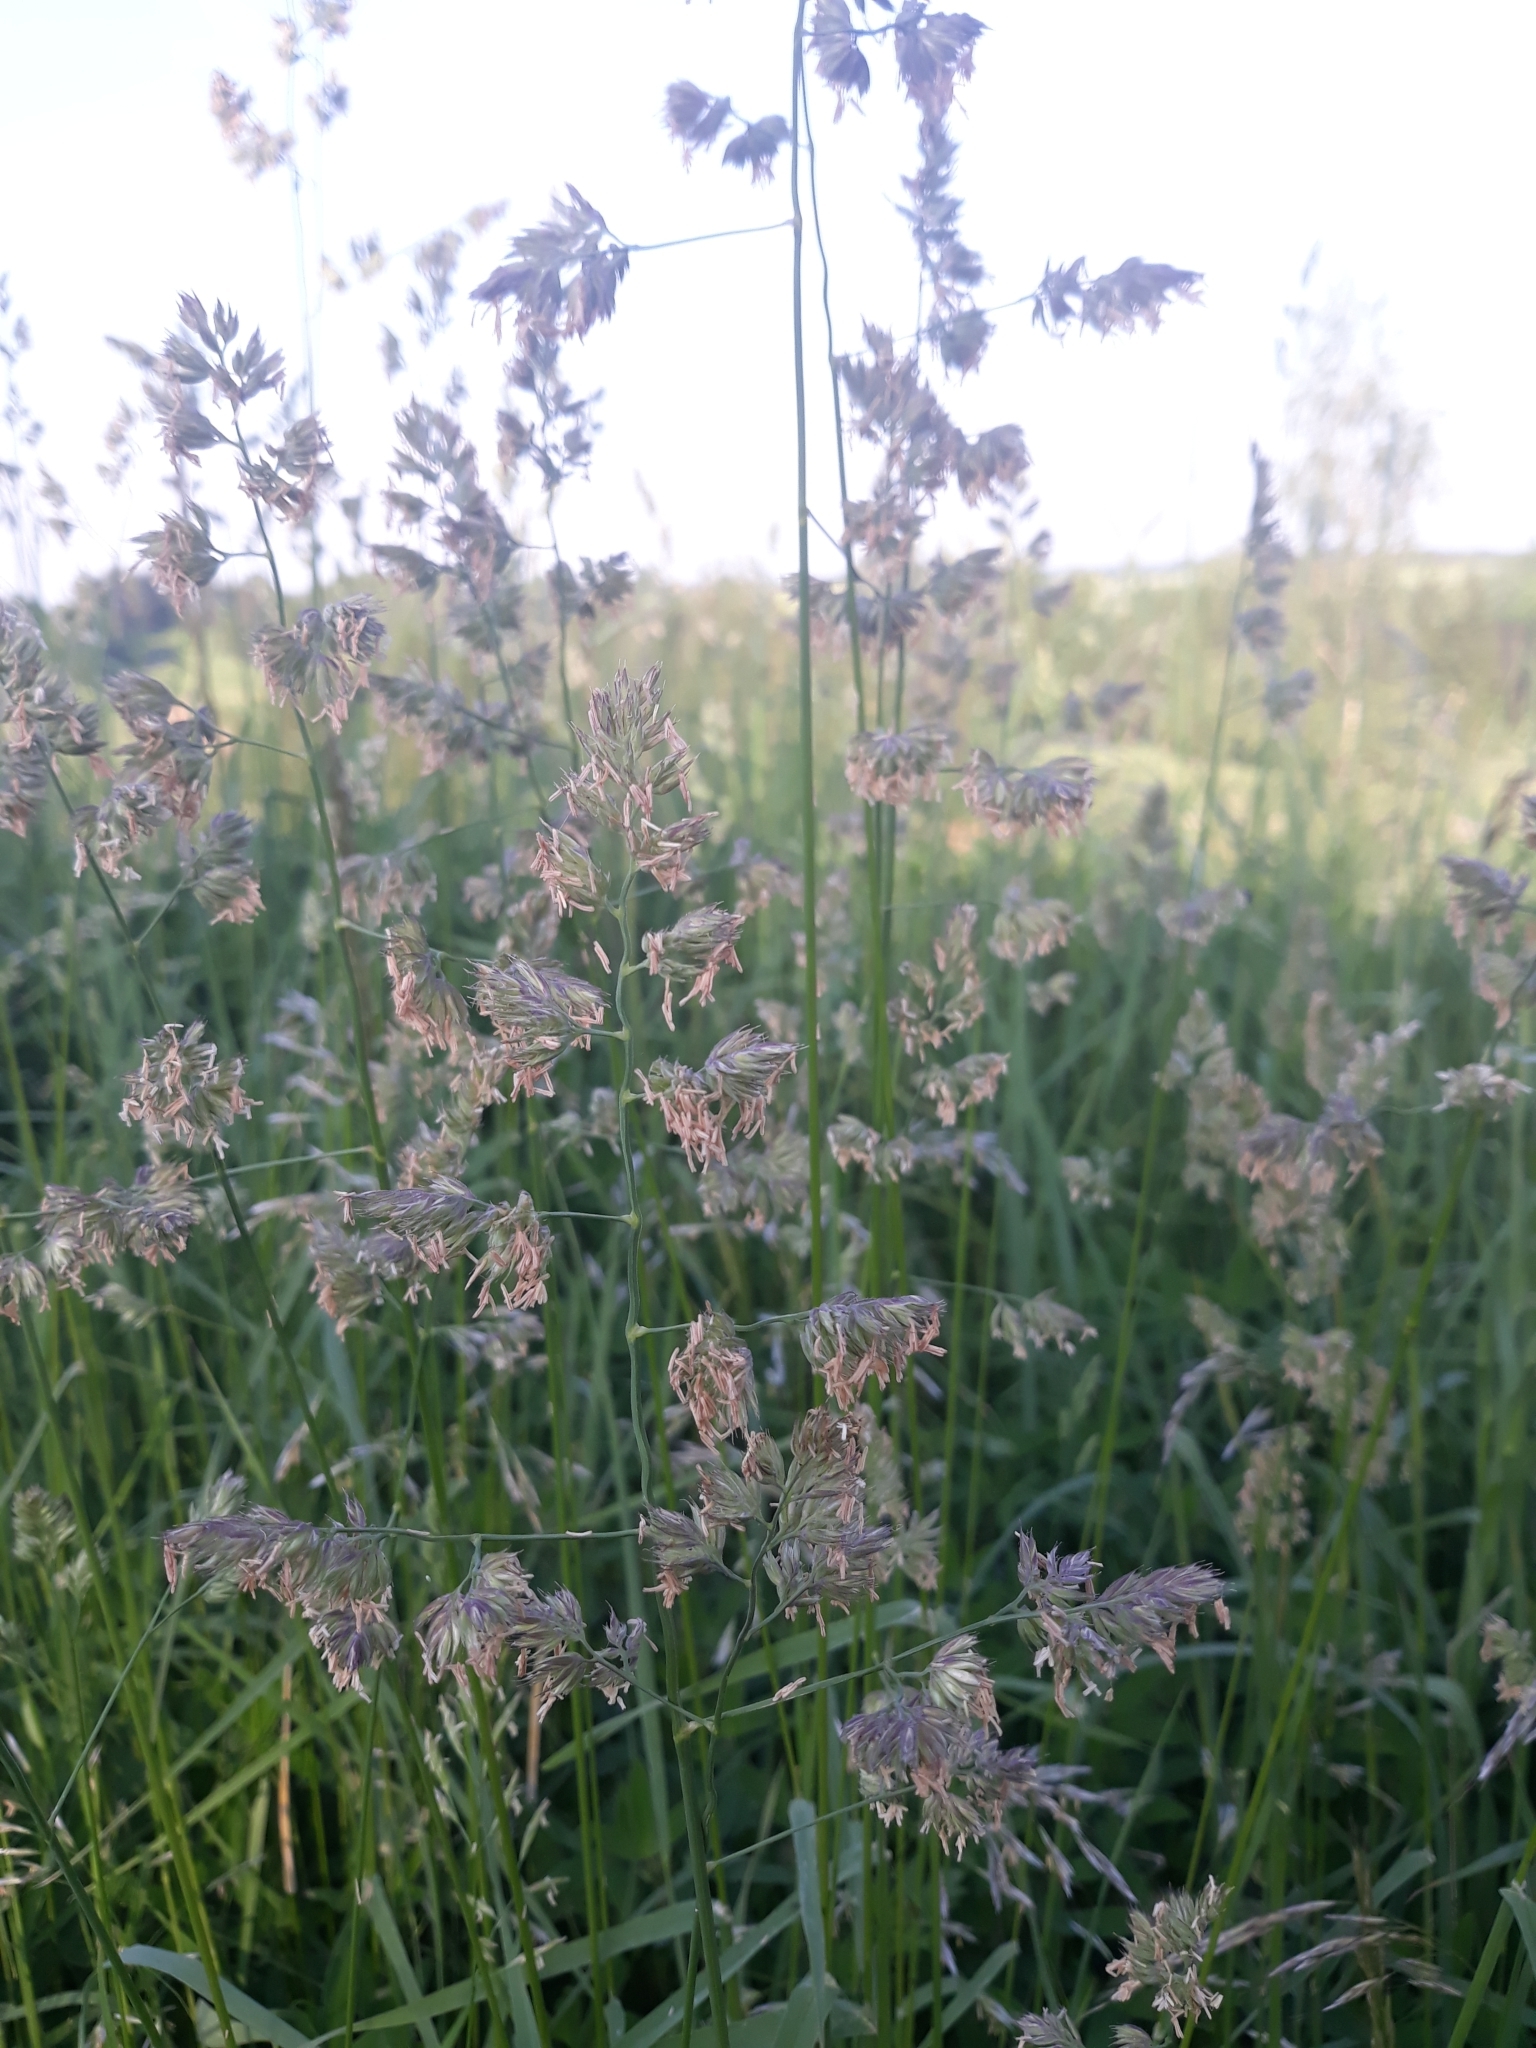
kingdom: Plantae
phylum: Tracheophyta
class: Liliopsida
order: Poales
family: Poaceae
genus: Dactylis
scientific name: Dactylis glomerata
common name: Orchardgrass
